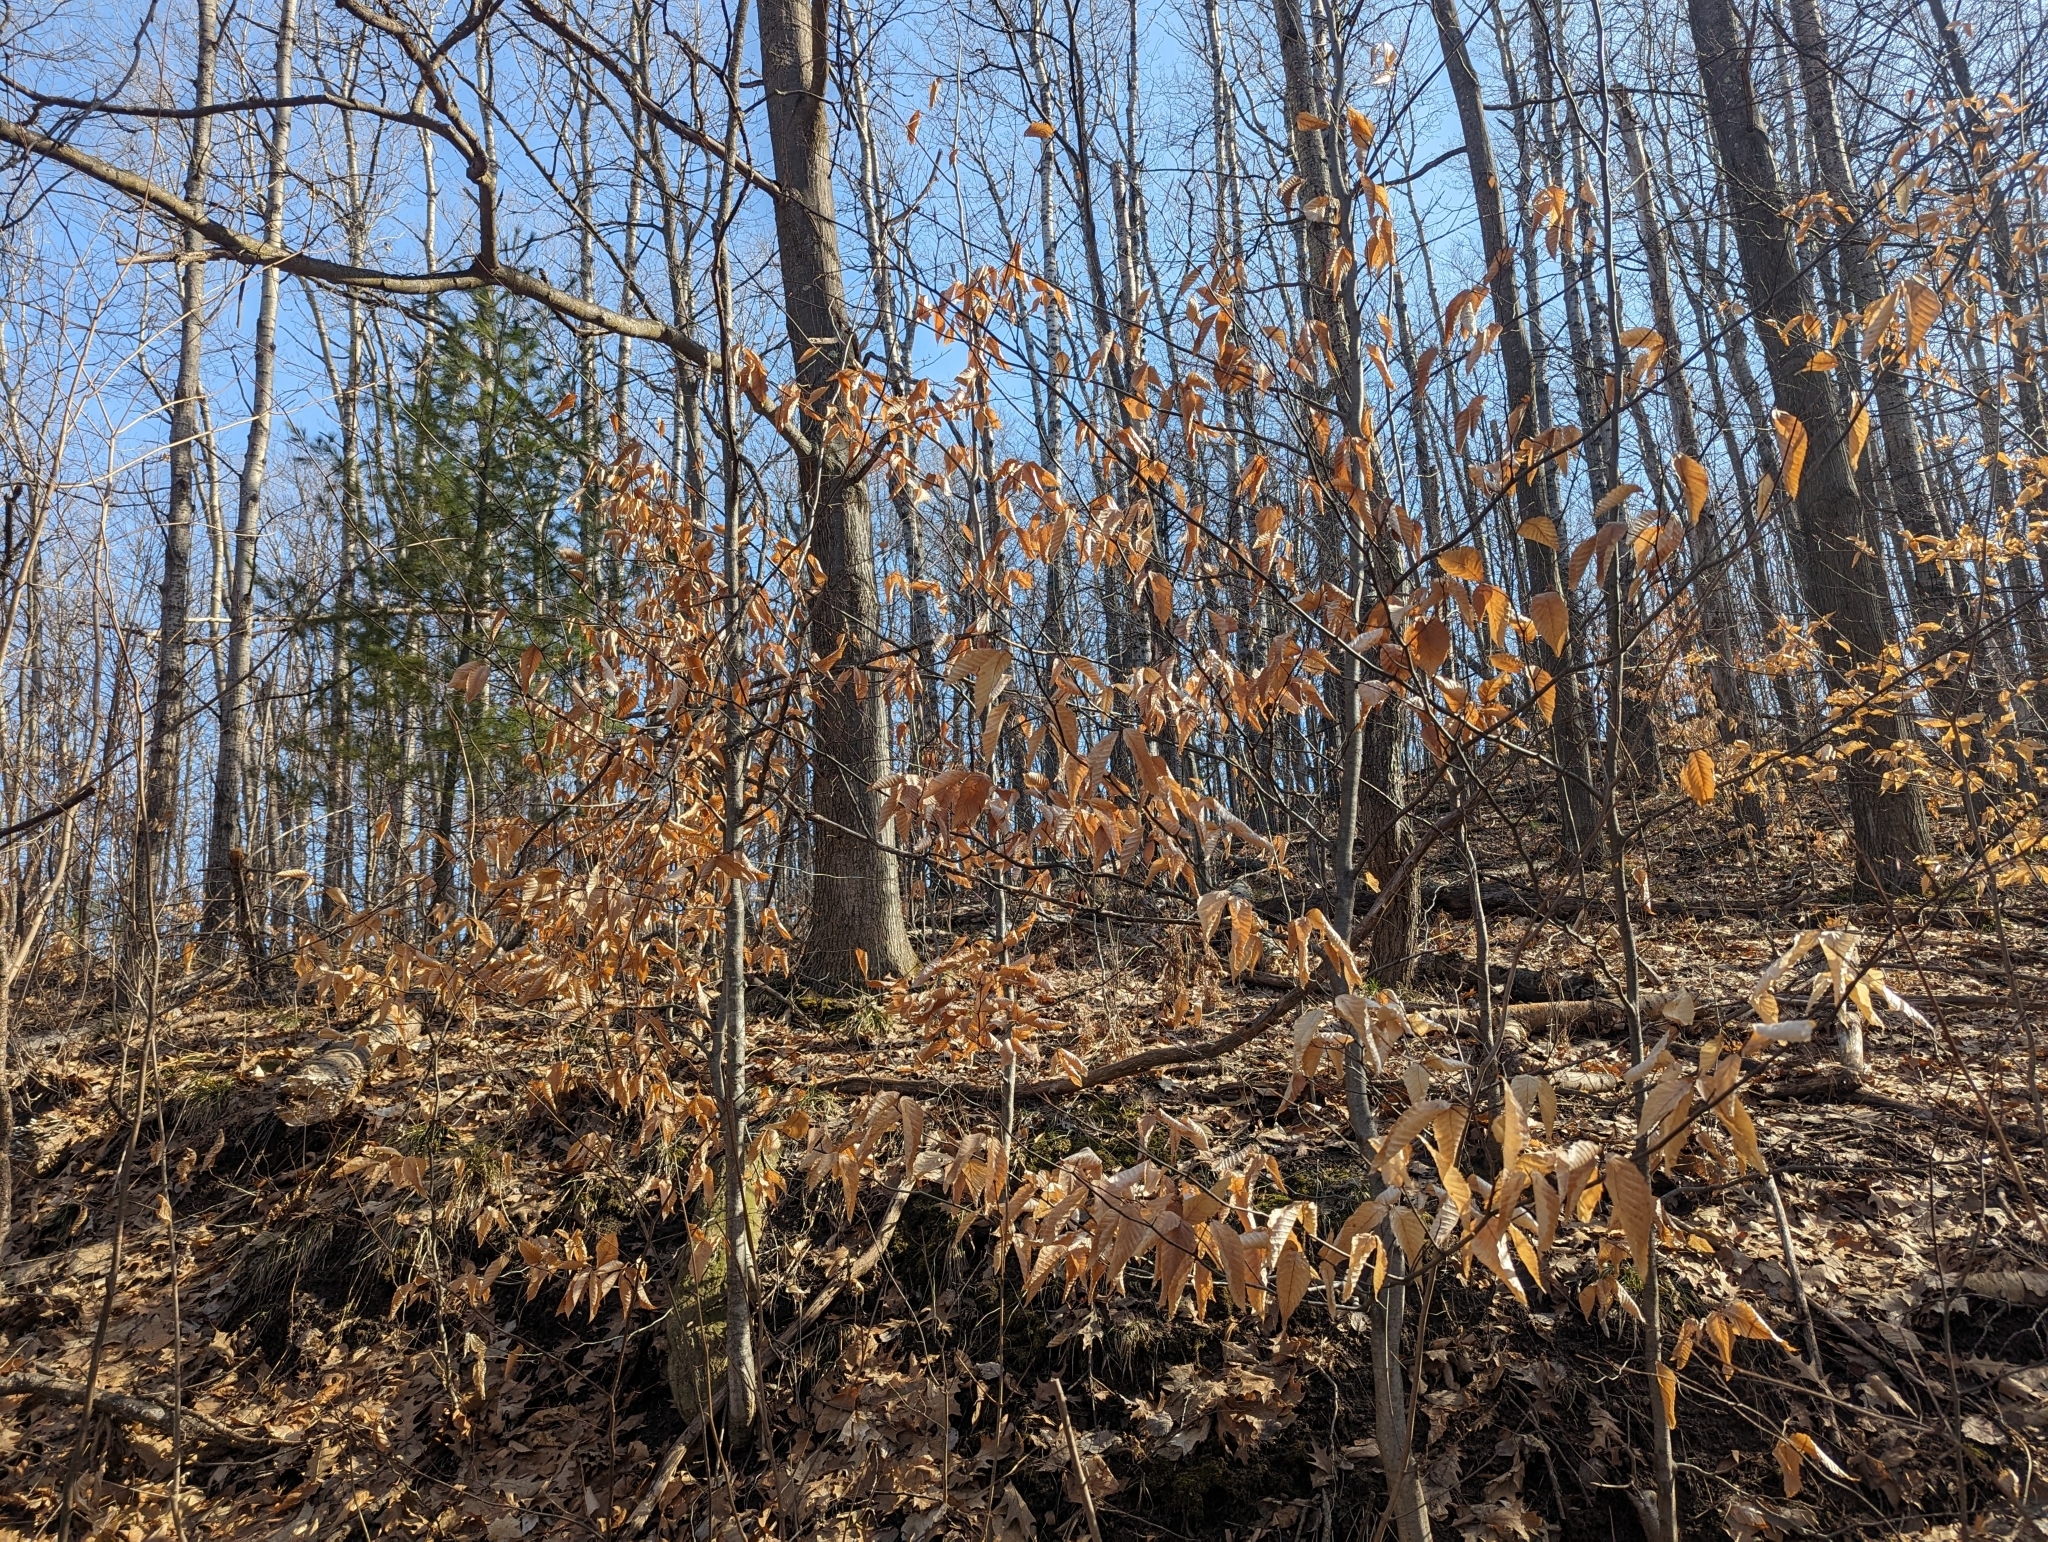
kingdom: Plantae
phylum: Tracheophyta
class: Magnoliopsida
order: Fagales
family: Fagaceae
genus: Fagus
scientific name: Fagus grandifolia
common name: American beech
